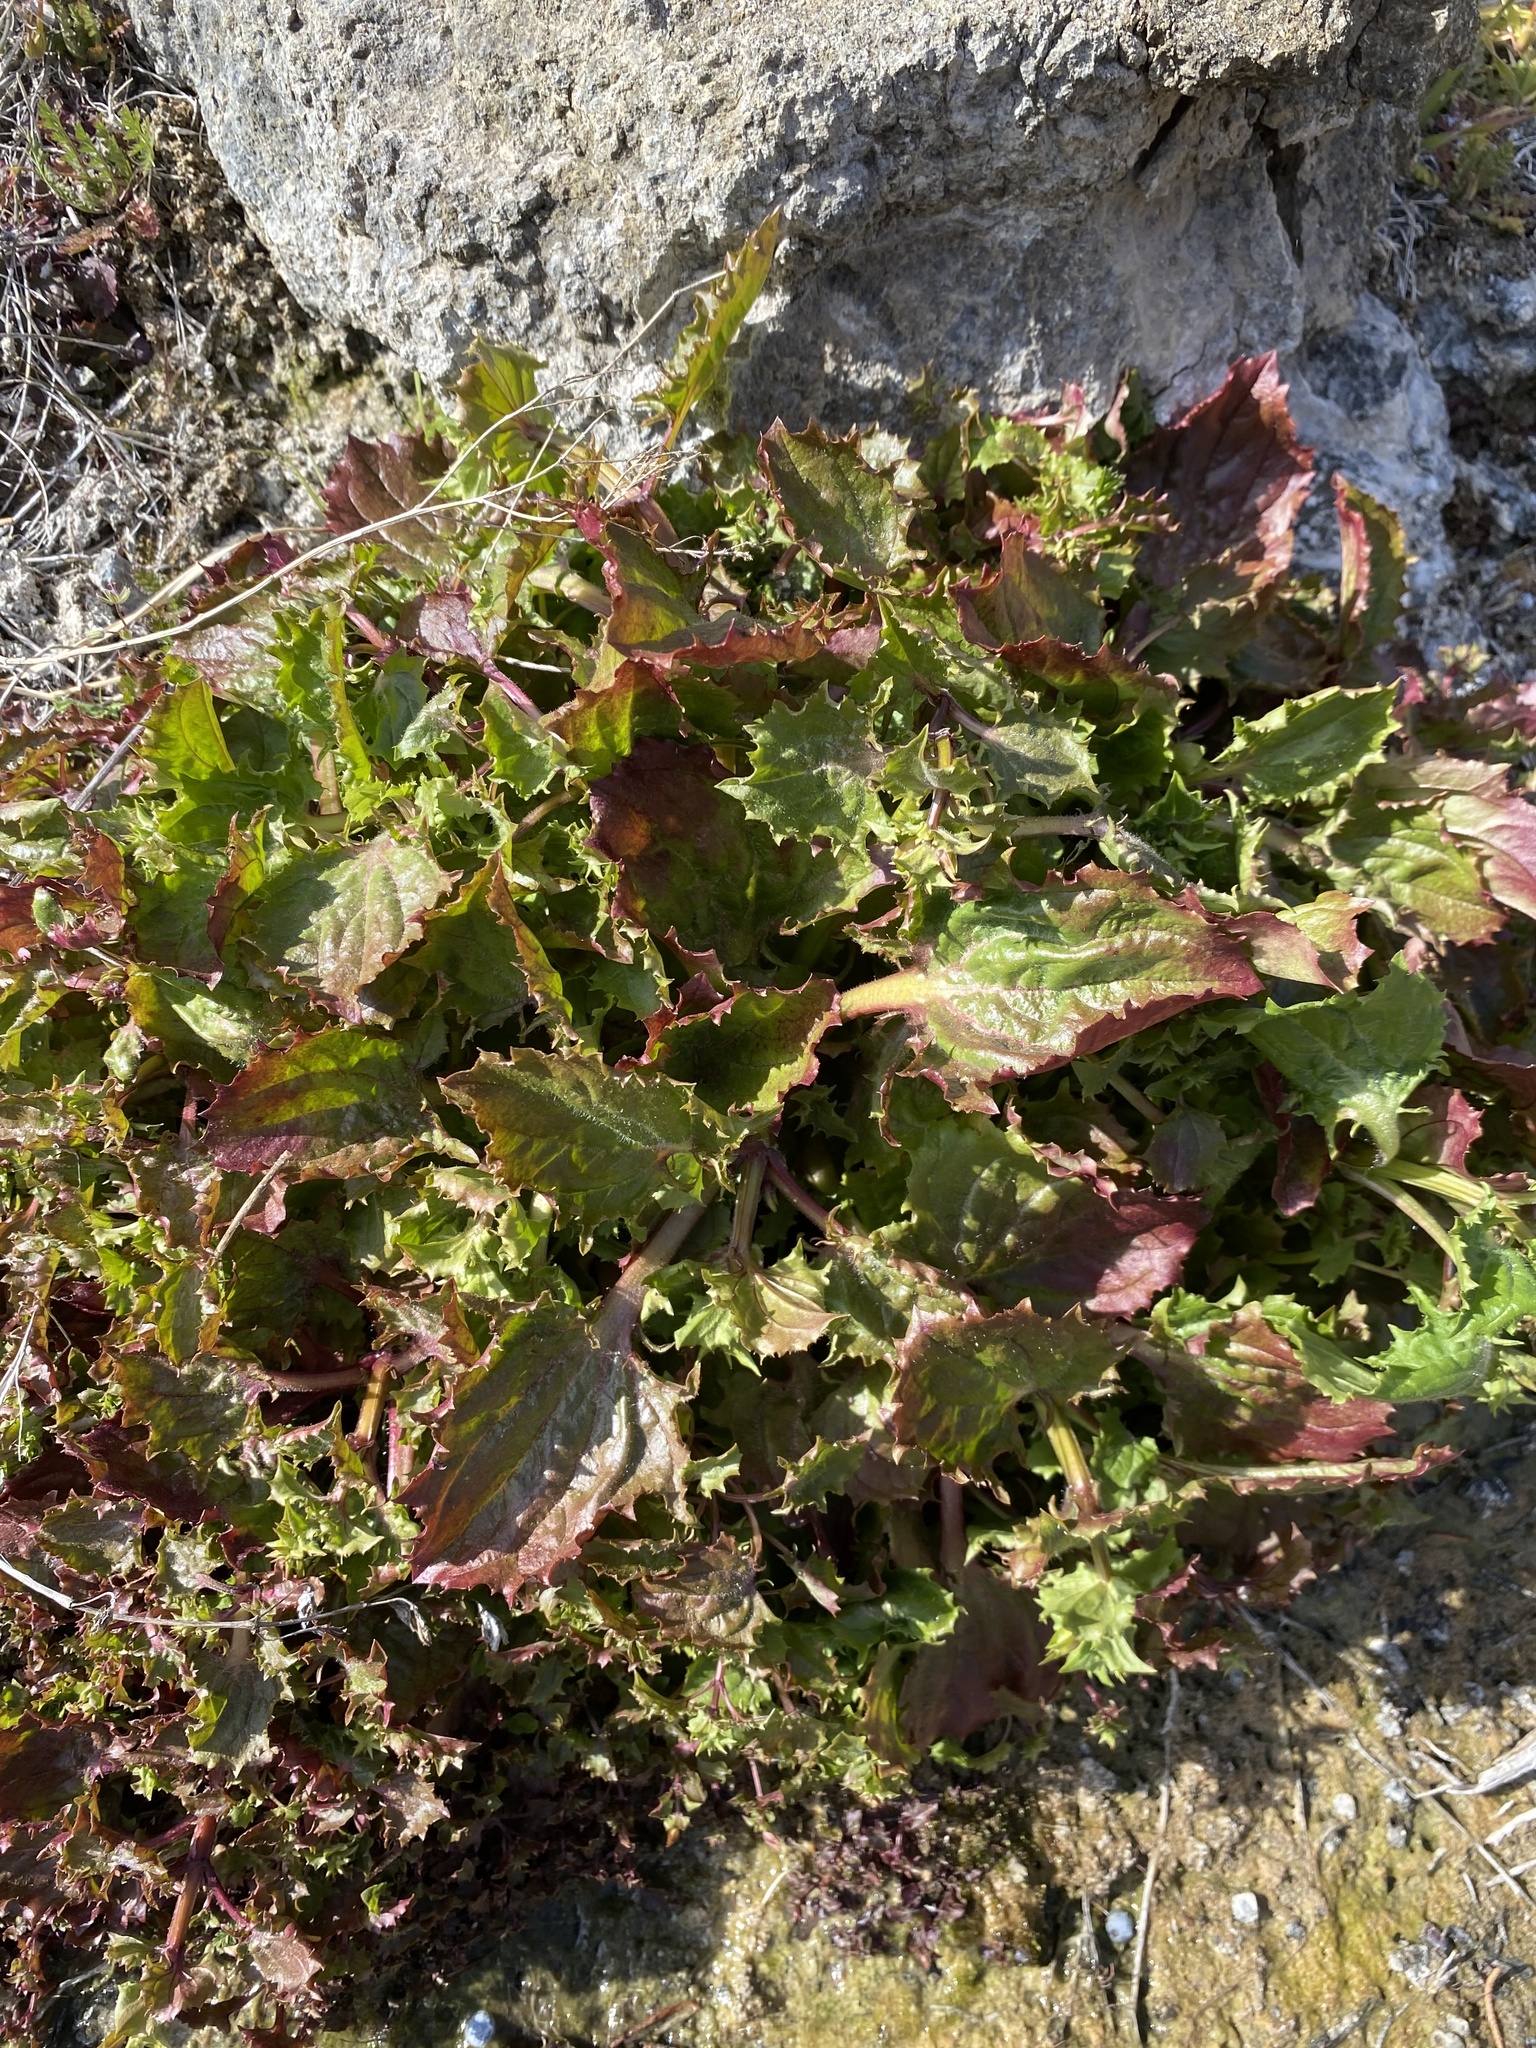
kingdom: Plantae
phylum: Tracheophyta
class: Magnoliopsida
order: Lamiales
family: Phrymaceae
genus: Erythranthe
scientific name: Erythranthe nasuta
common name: Sooke monkeyflower
